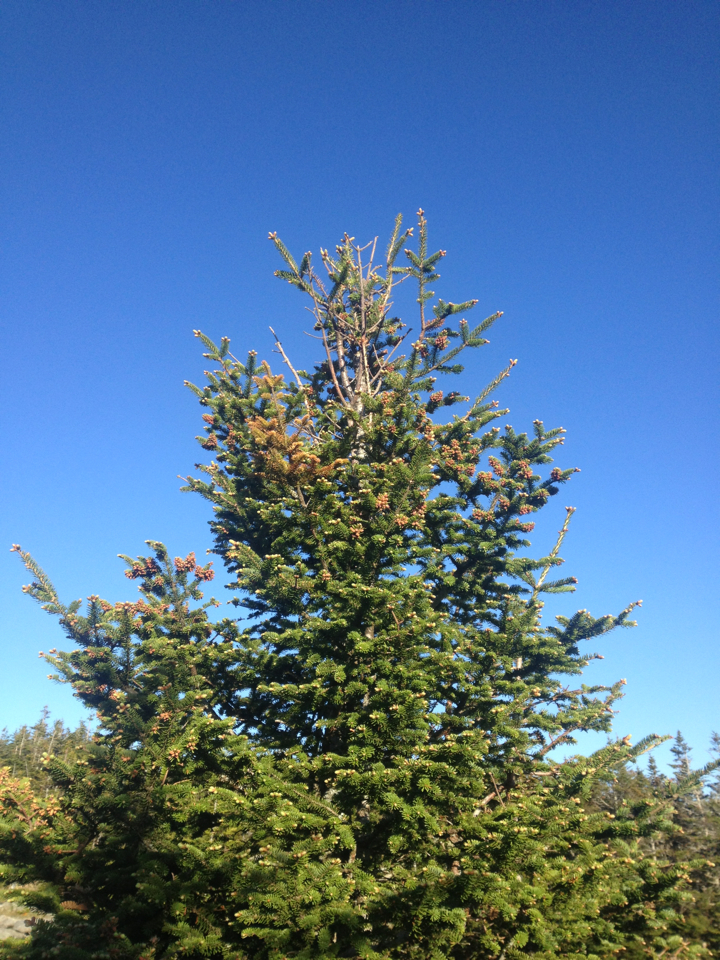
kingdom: Plantae
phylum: Tracheophyta
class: Pinopsida
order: Pinales
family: Pinaceae
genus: Abies
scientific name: Abies balsamea
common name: Balsam fir
